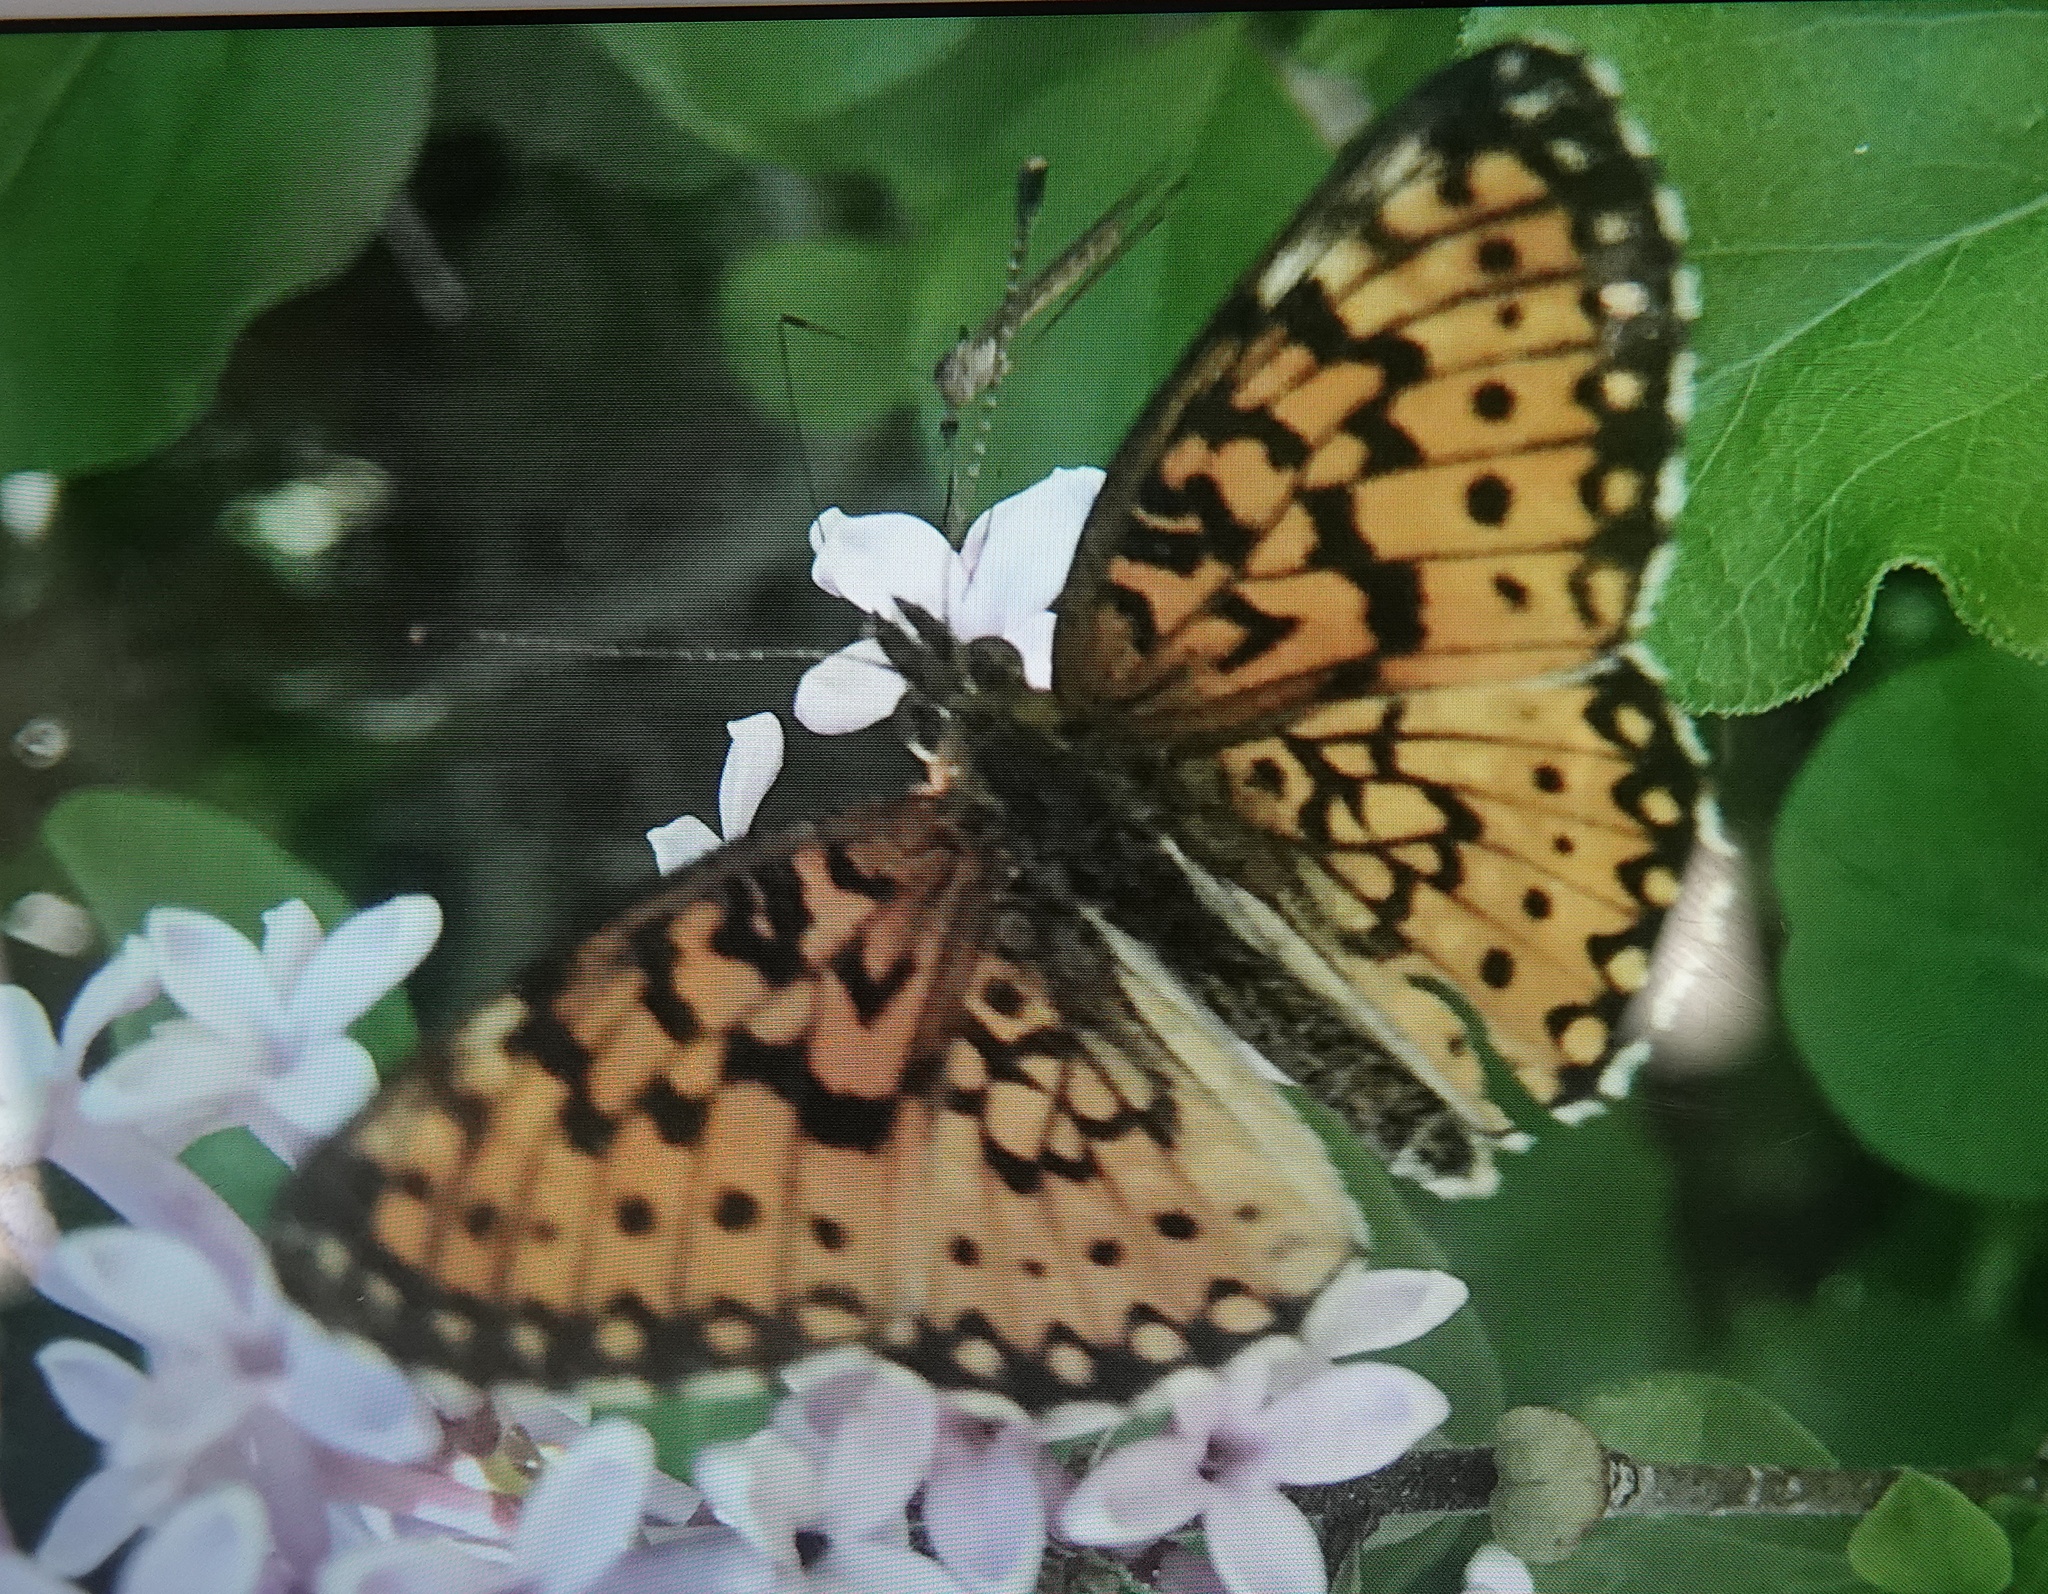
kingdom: Animalia
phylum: Arthropoda
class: Insecta
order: Lepidoptera
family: Nymphalidae
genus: Boloria
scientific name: Boloria
